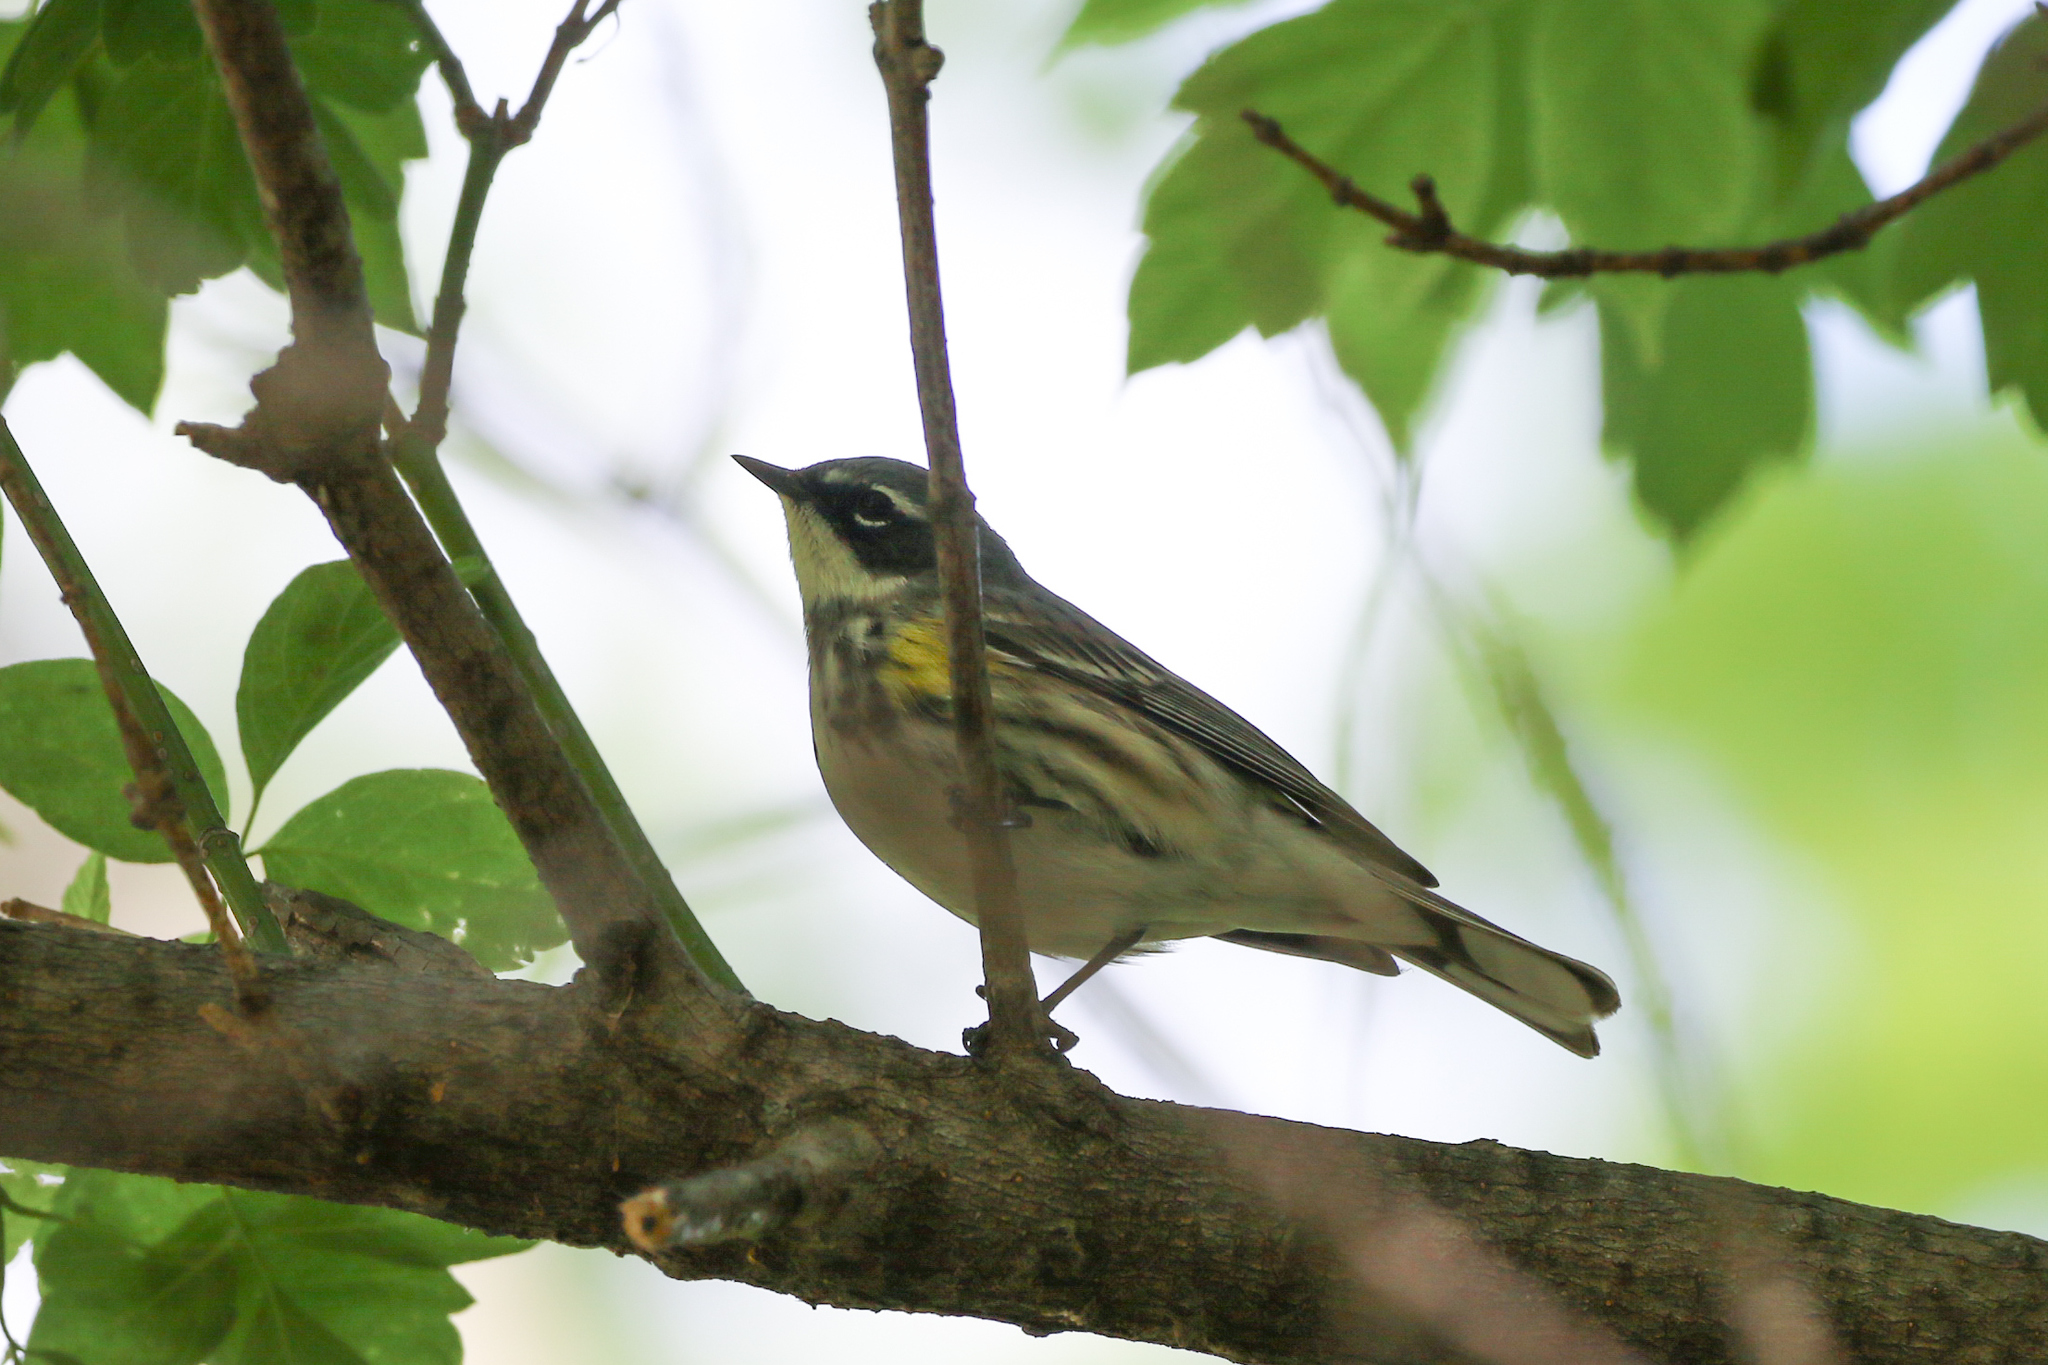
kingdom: Animalia
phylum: Chordata
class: Aves
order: Passeriformes
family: Parulidae
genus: Setophaga
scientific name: Setophaga coronata
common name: Myrtle warbler
